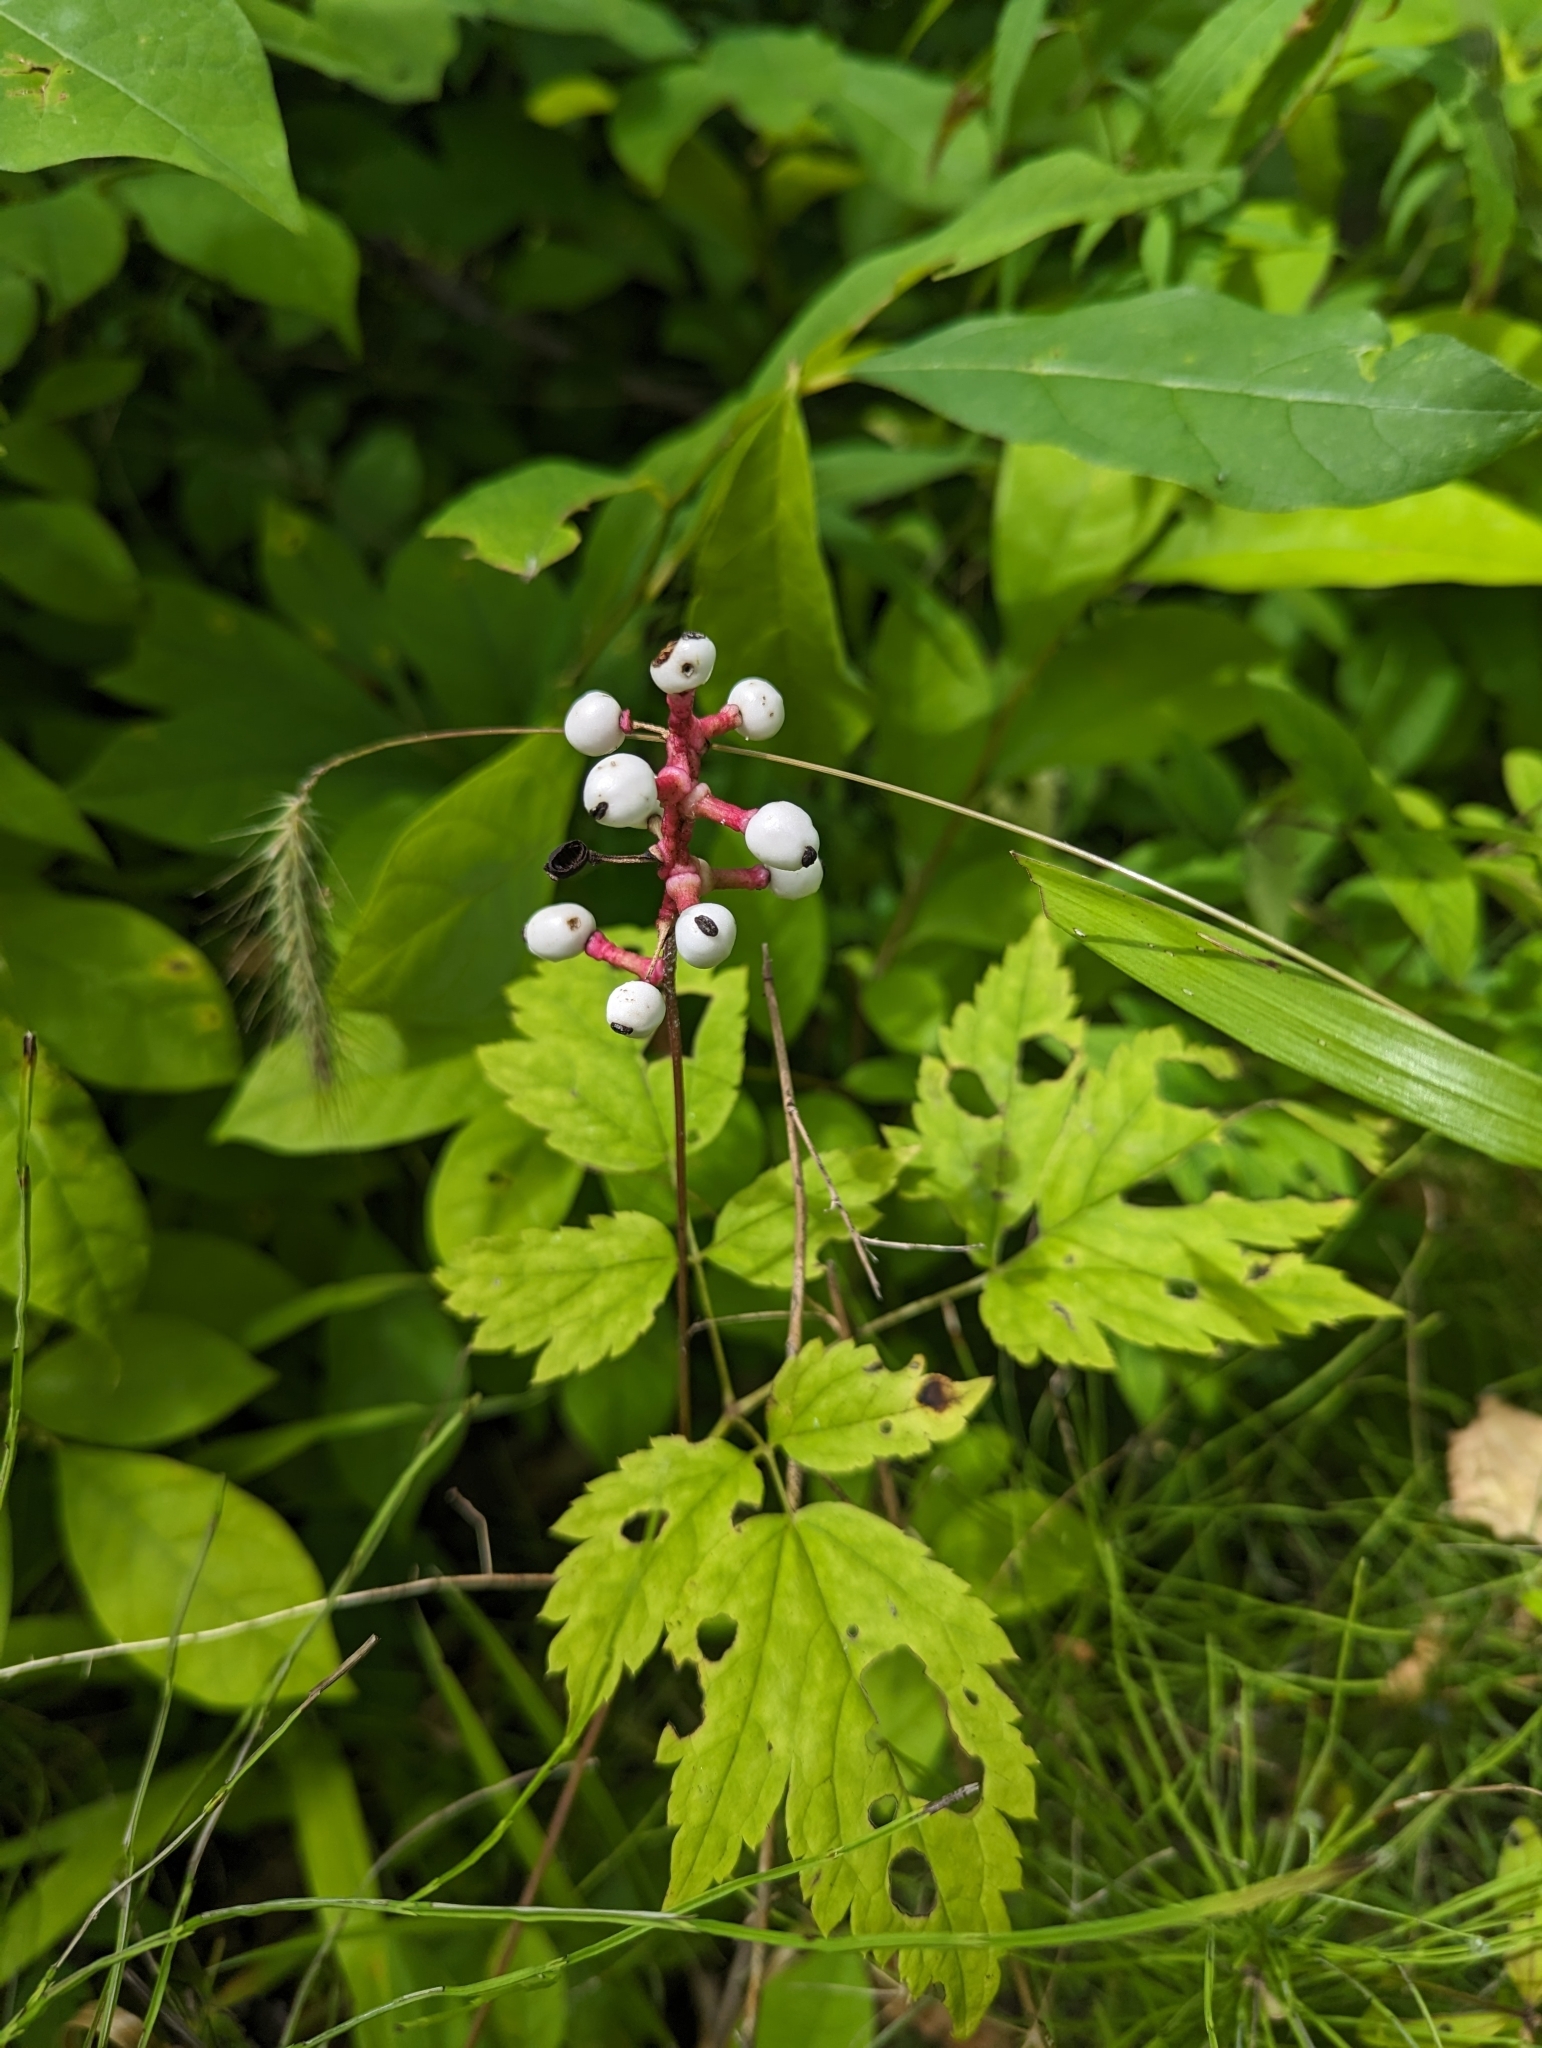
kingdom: Plantae
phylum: Tracheophyta
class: Magnoliopsida
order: Ranunculales
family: Ranunculaceae
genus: Actaea
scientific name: Actaea pachypoda
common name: Doll's-eyes
